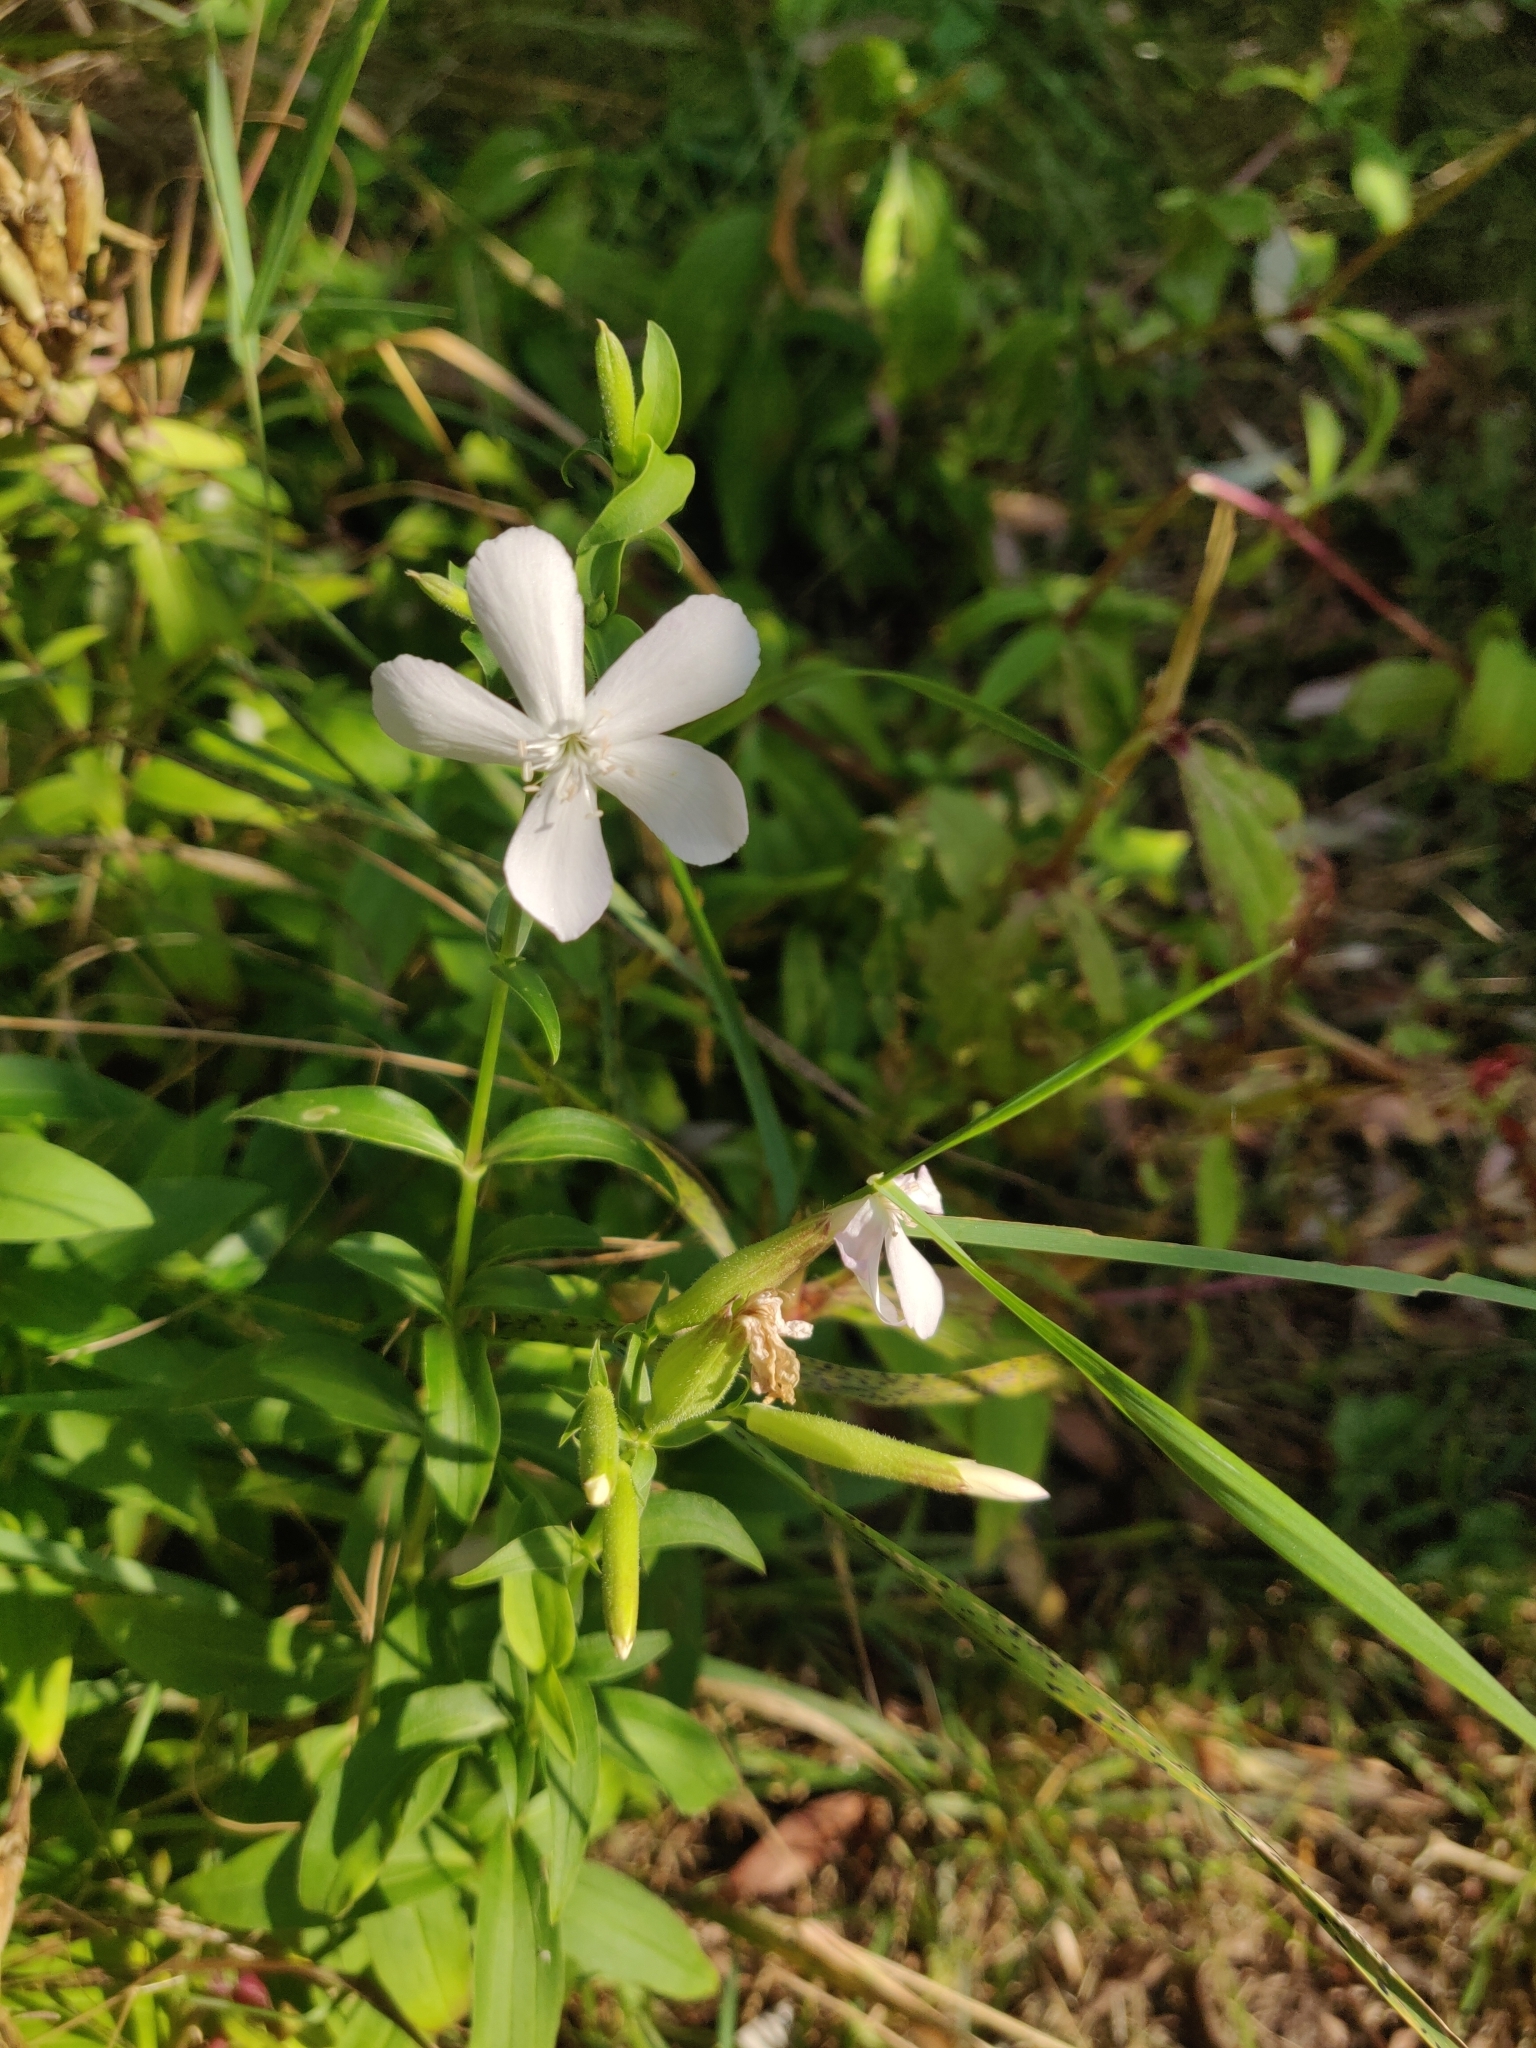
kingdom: Plantae
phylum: Tracheophyta
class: Magnoliopsida
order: Caryophyllales
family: Caryophyllaceae
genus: Saponaria
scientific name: Saponaria officinalis
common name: Soapwort
